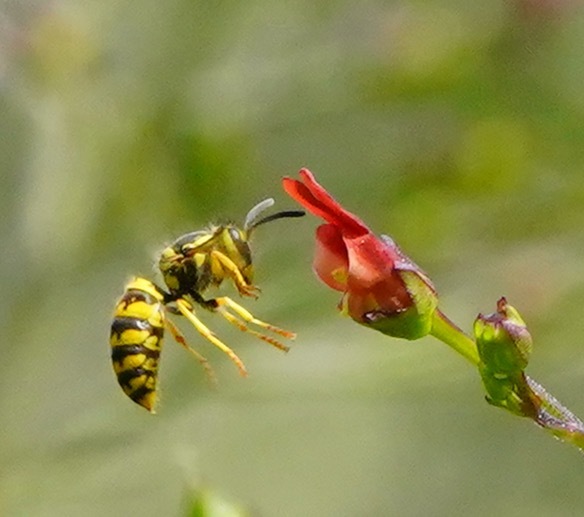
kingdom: Animalia
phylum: Arthropoda
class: Insecta
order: Hymenoptera
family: Vespidae
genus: Vespula
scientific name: Vespula pensylvanica
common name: Western yellowjacket
